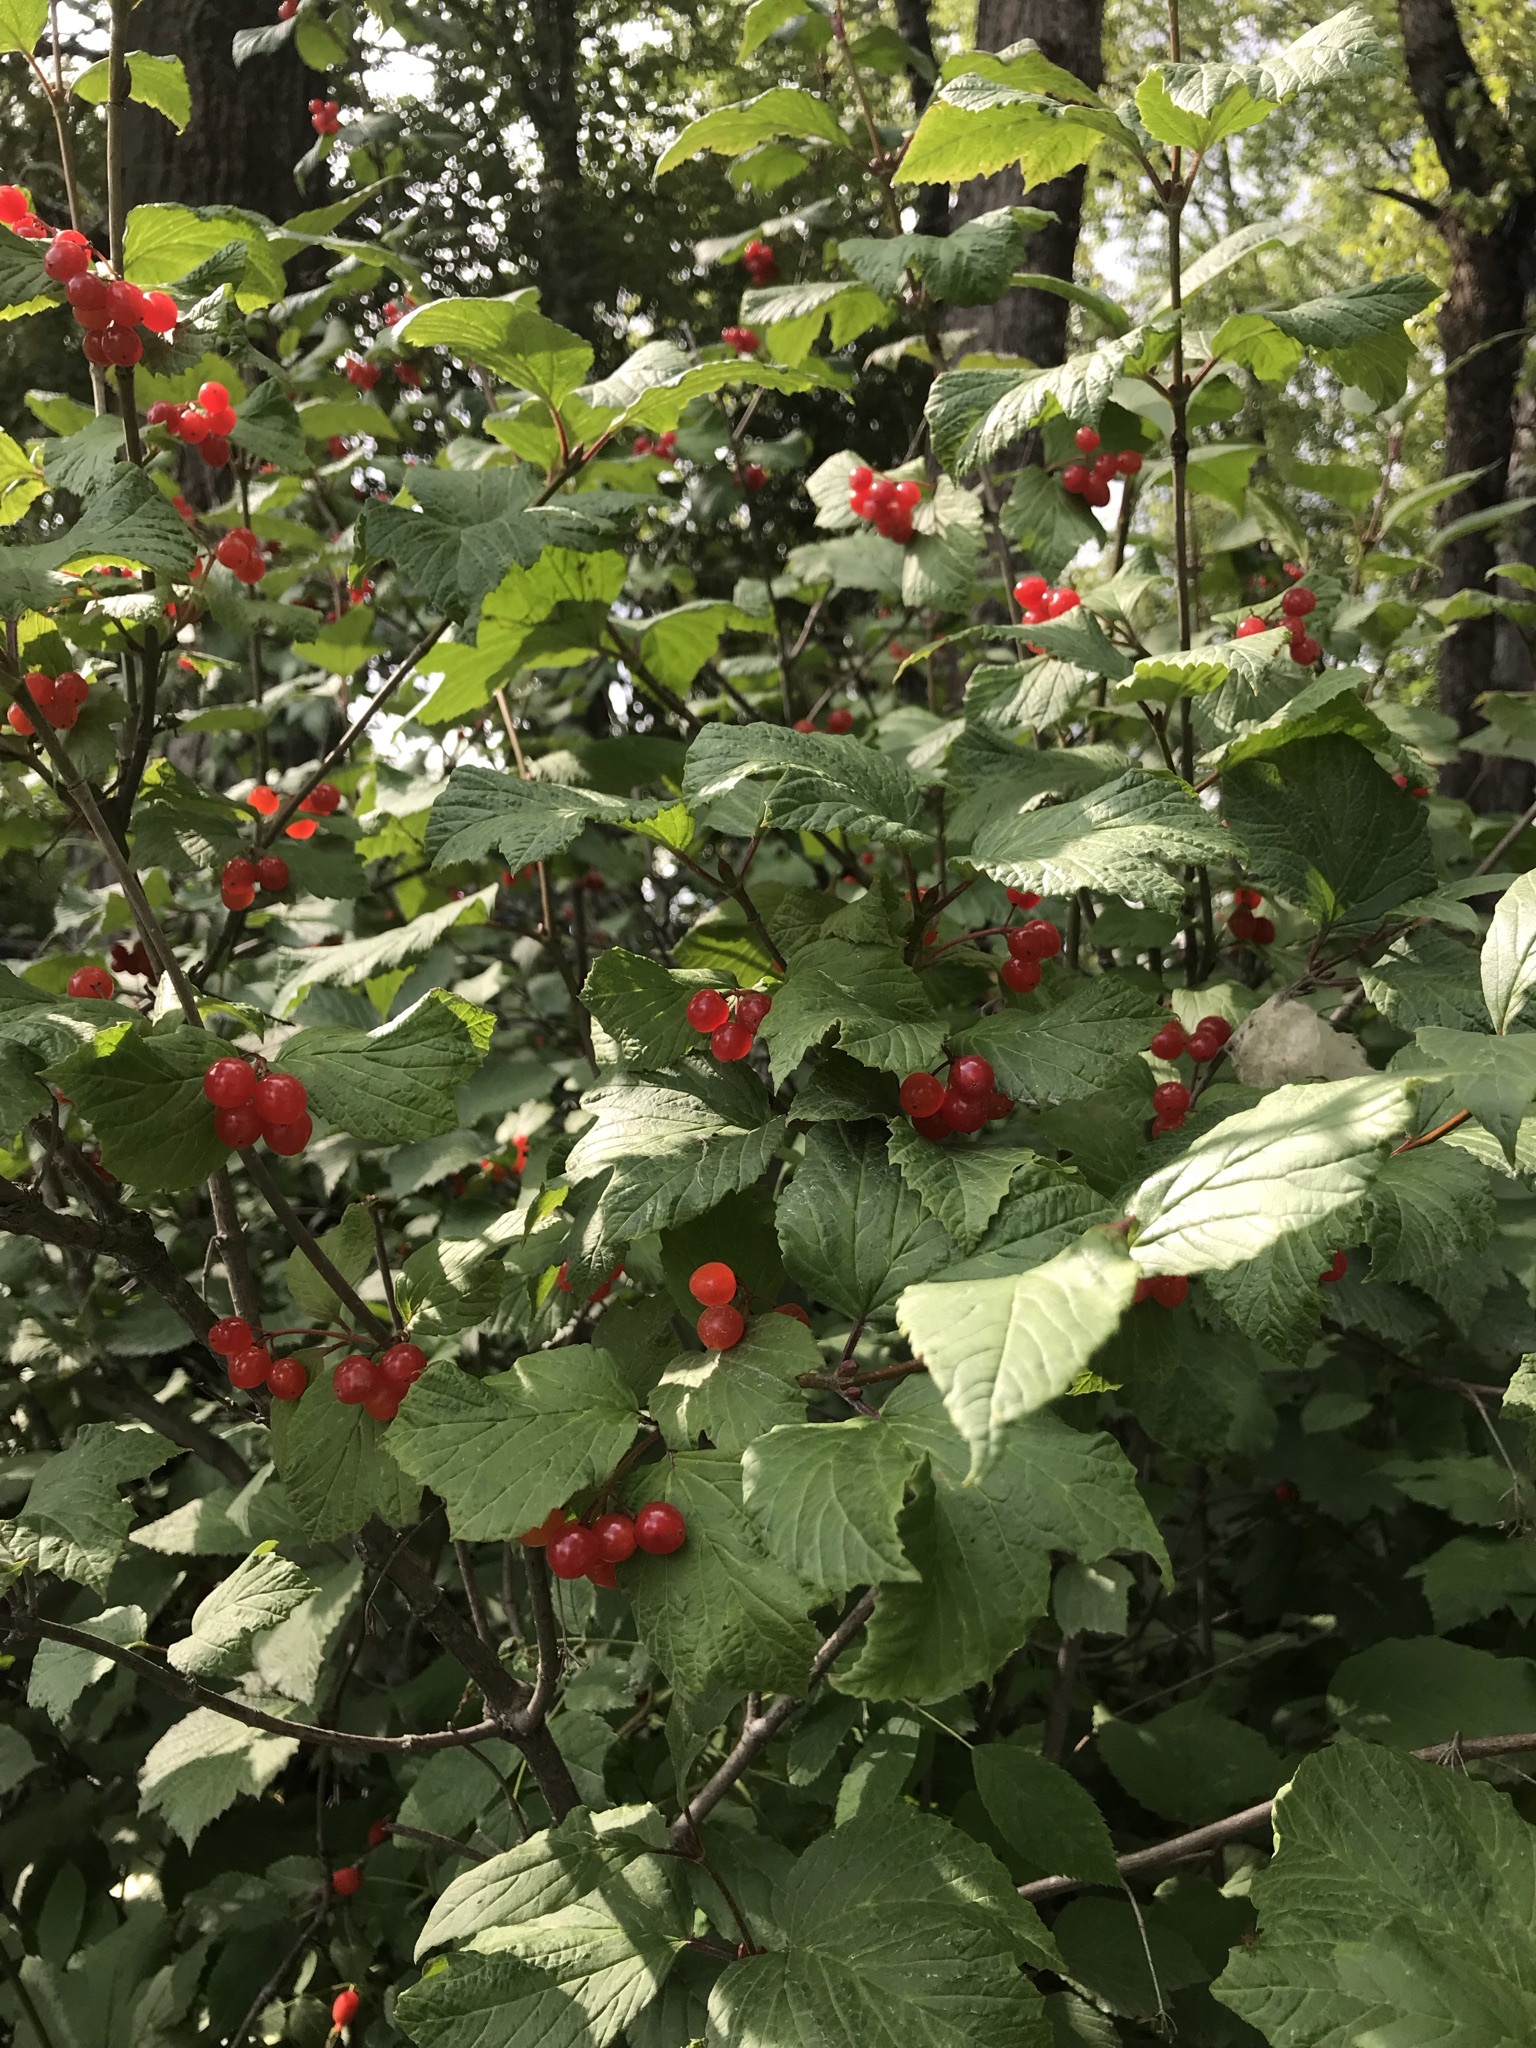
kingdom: Plantae
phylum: Tracheophyta
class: Magnoliopsida
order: Dipsacales
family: Viburnaceae
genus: Viburnum
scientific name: Viburnum edule
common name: Mooseberry
